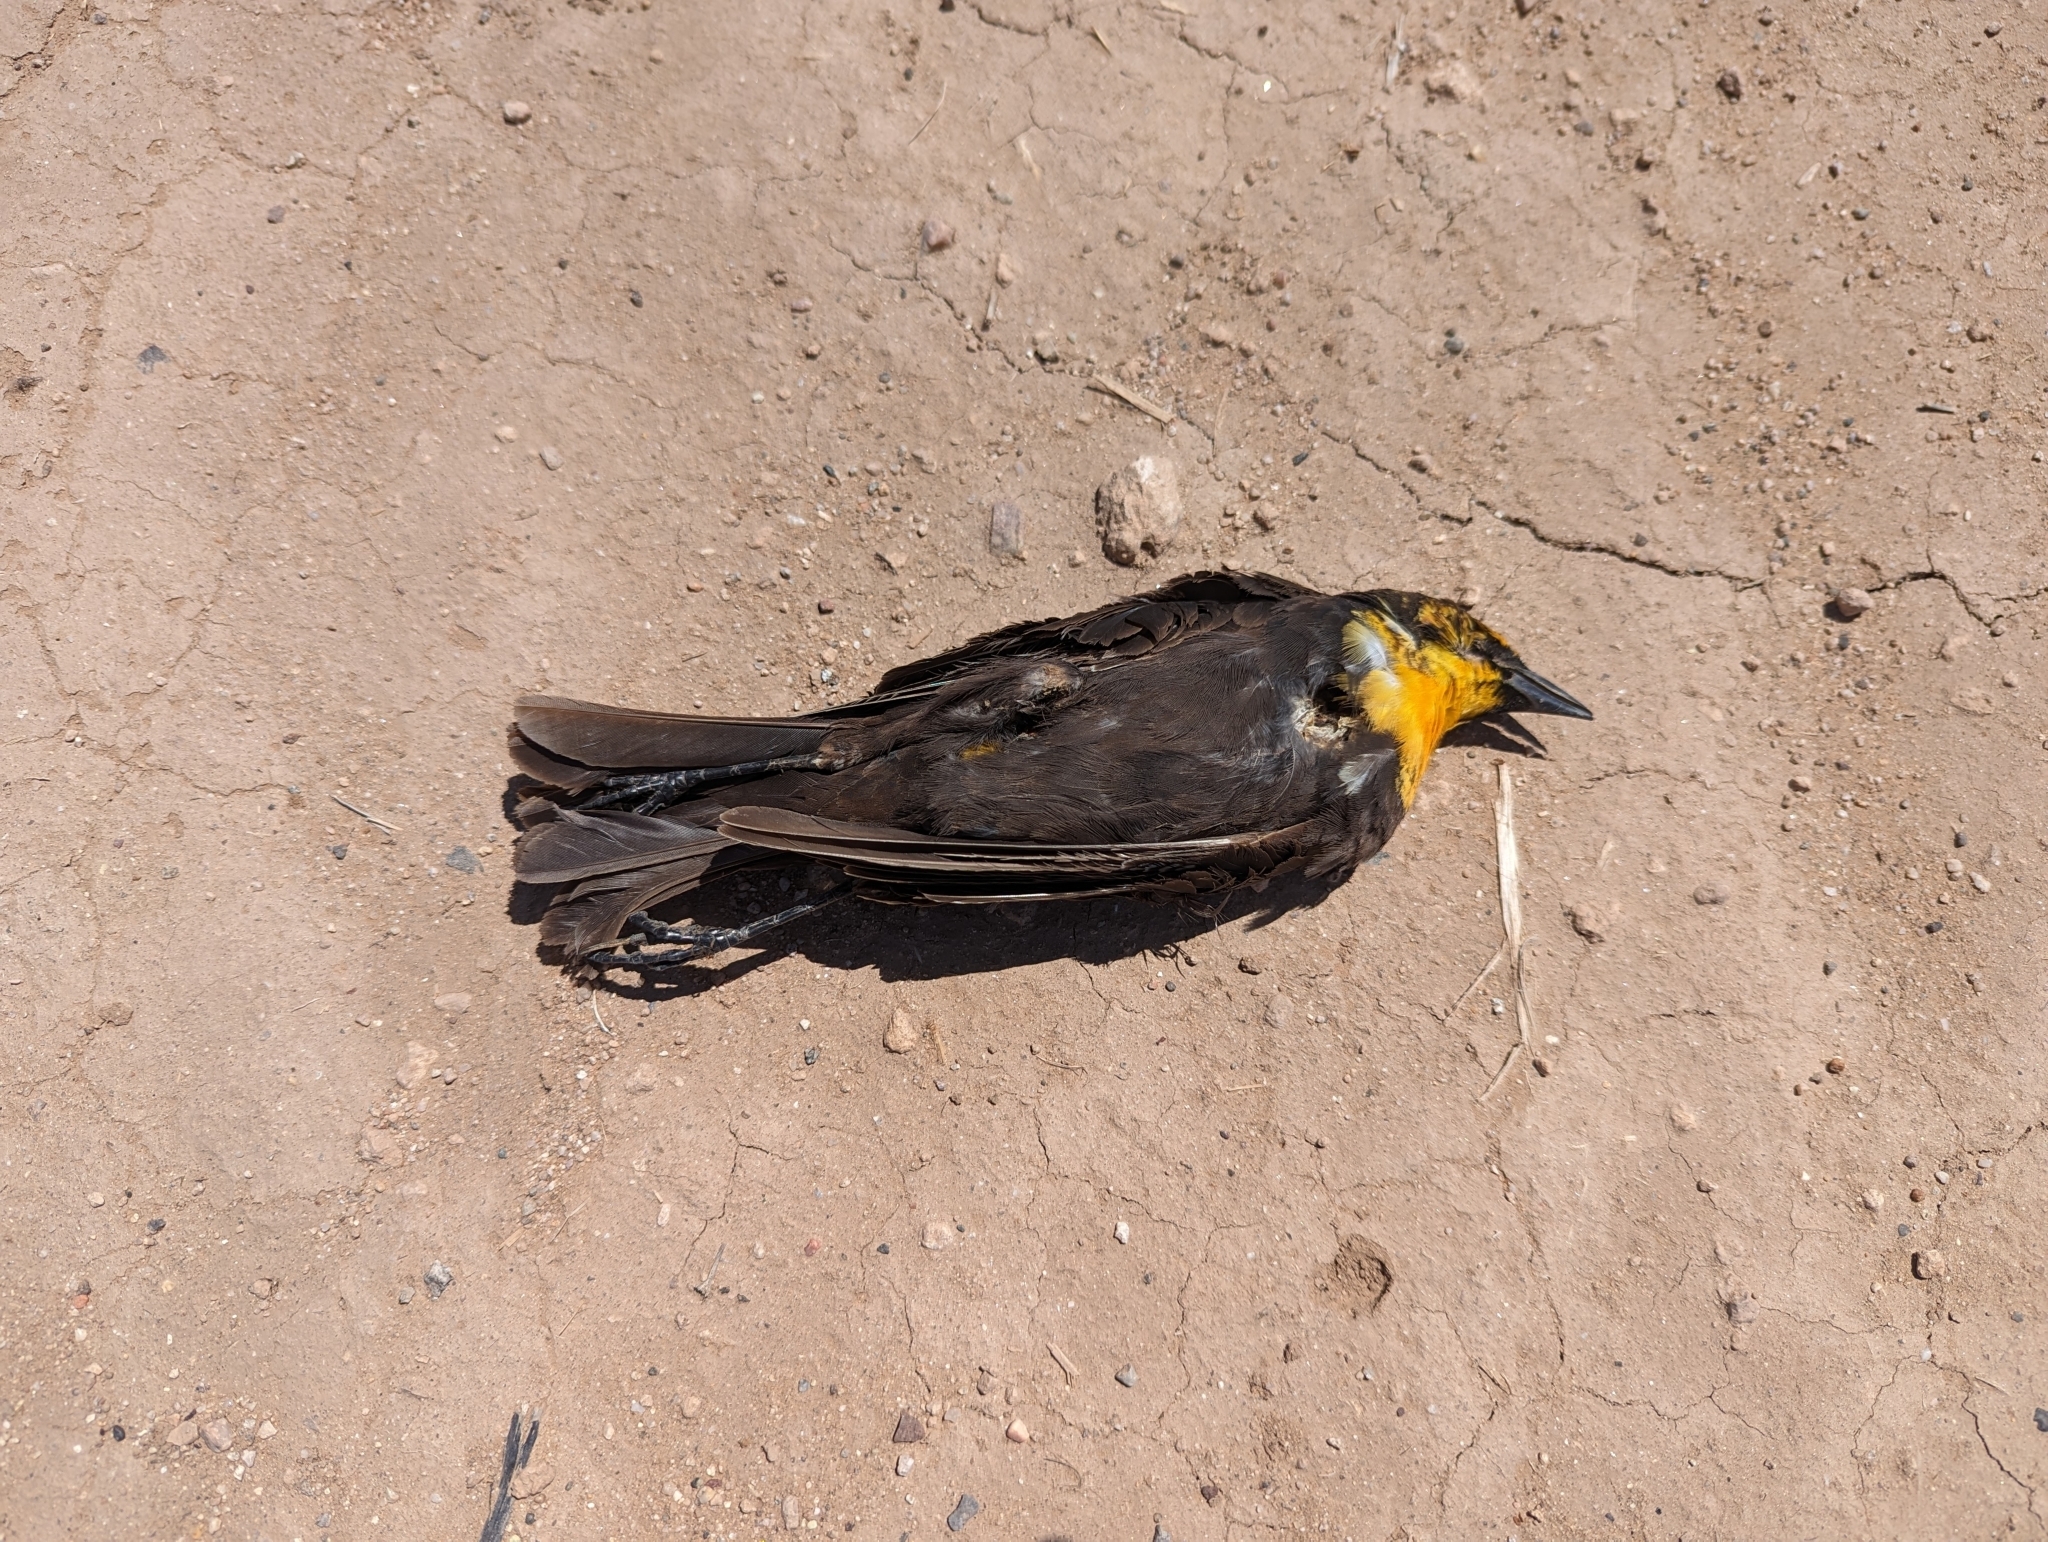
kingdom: Animalia
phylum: Chordata
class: Aves
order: Passeriformes
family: Icteridae
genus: Xanthocephalus
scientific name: Xanthocephalus xanthocephalus
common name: Yellow-headed blackbird
